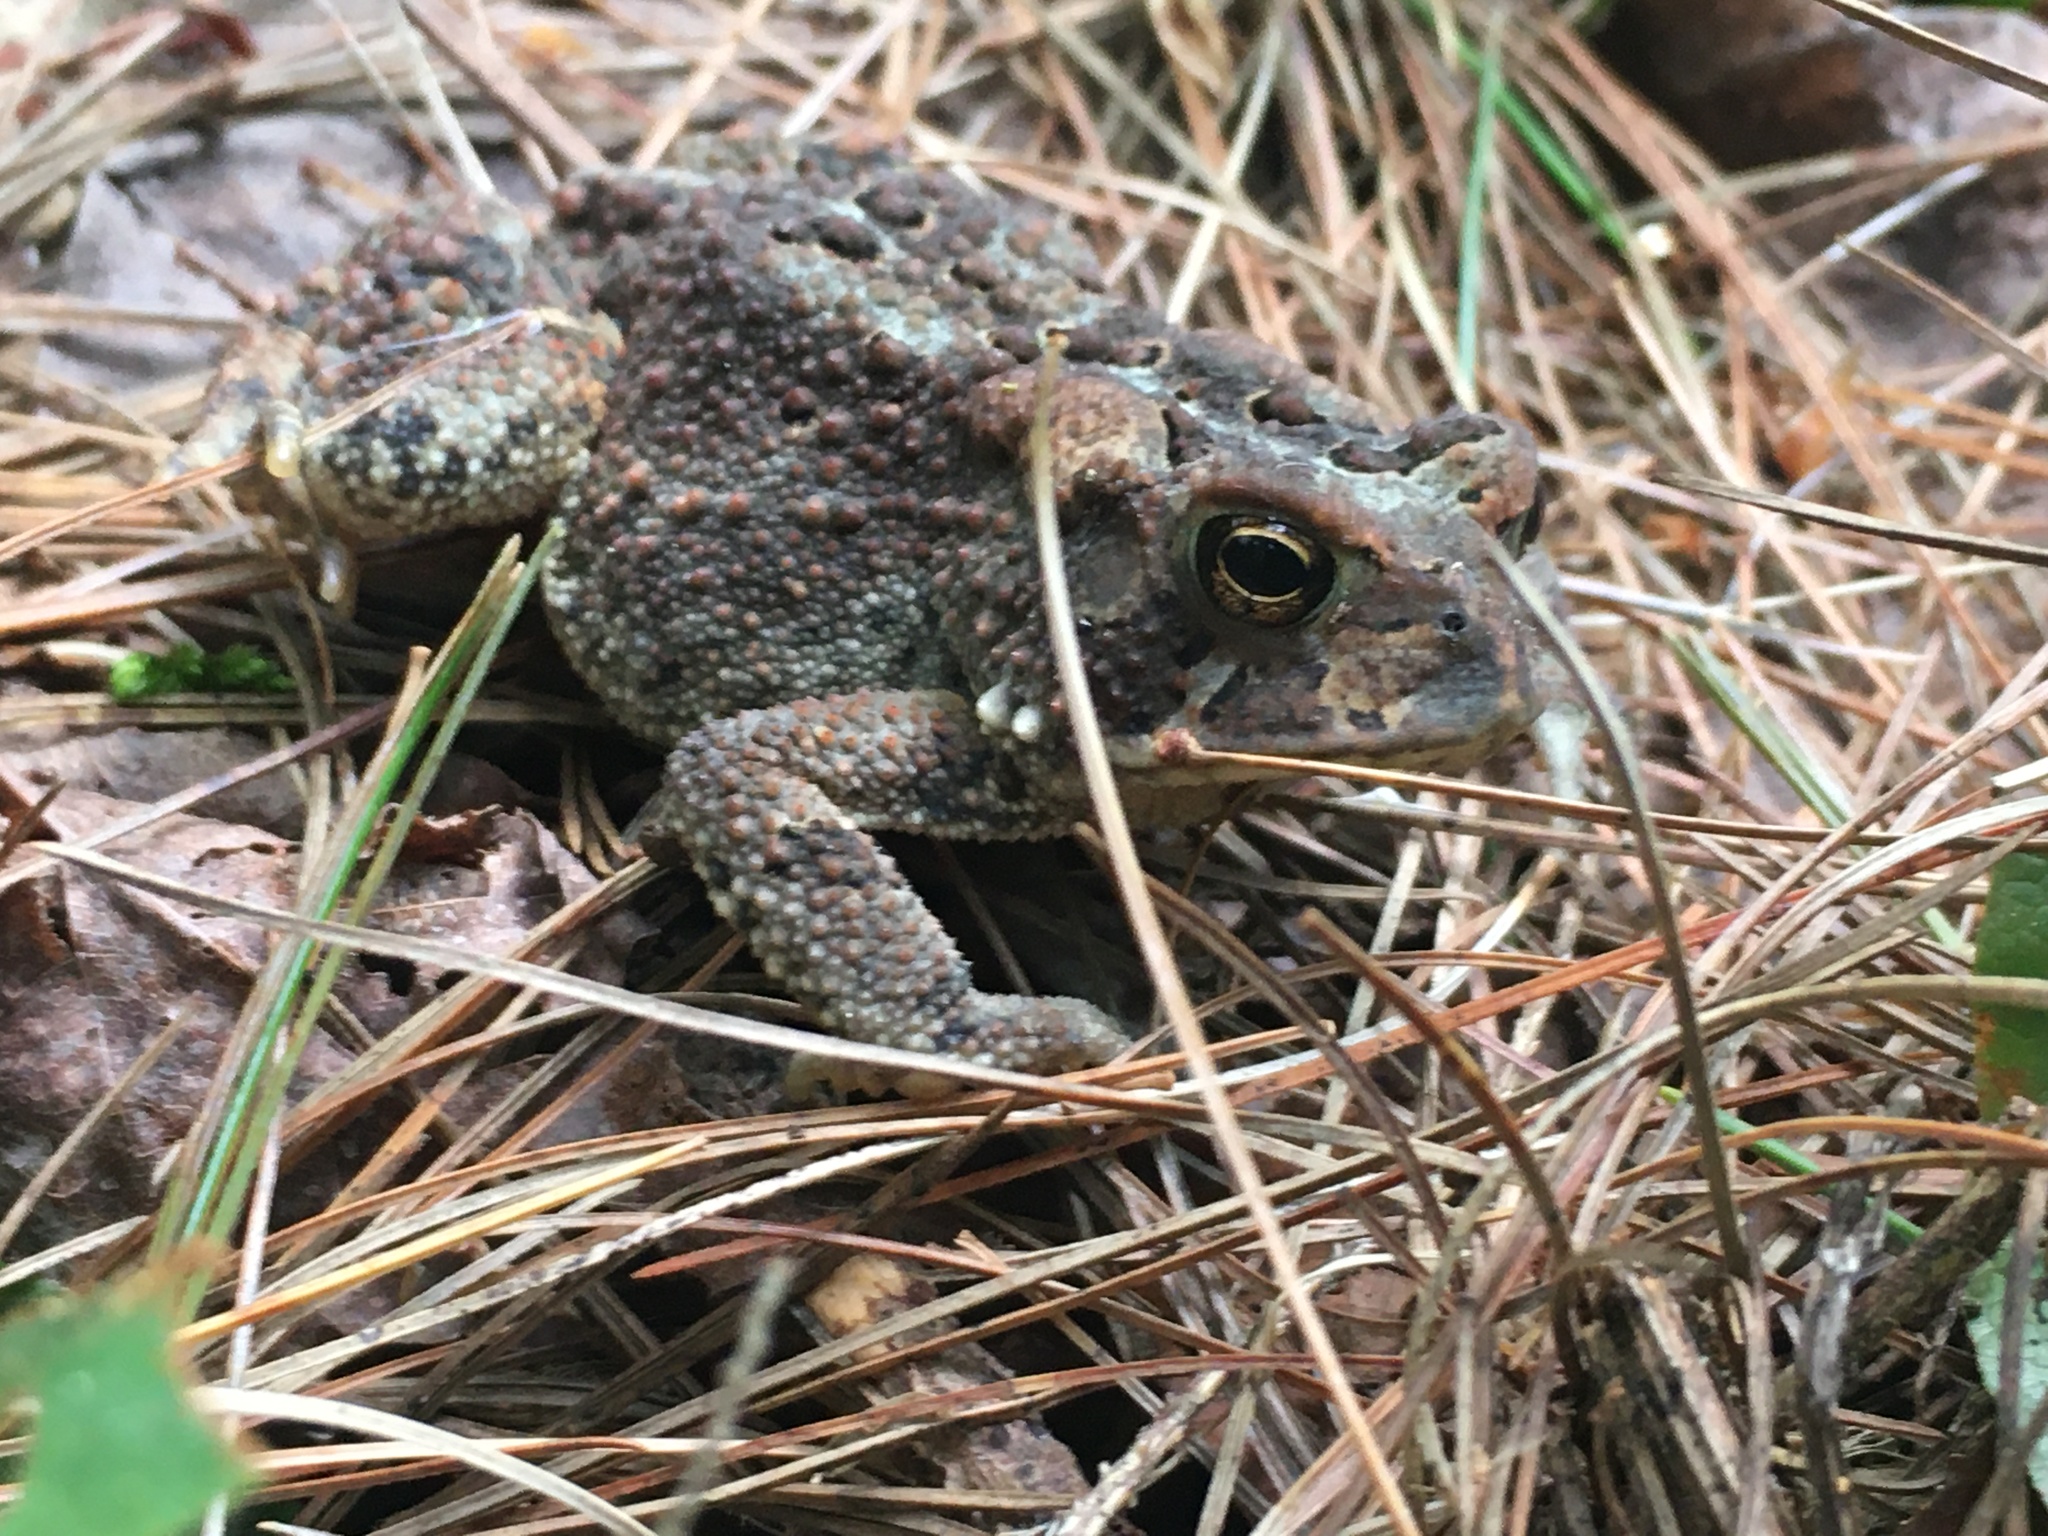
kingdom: Animalia
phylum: Chordata
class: Amphibia
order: Anura
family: Bufonidae
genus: Anaxyrus
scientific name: Anaxyrus americanus
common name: American toad
